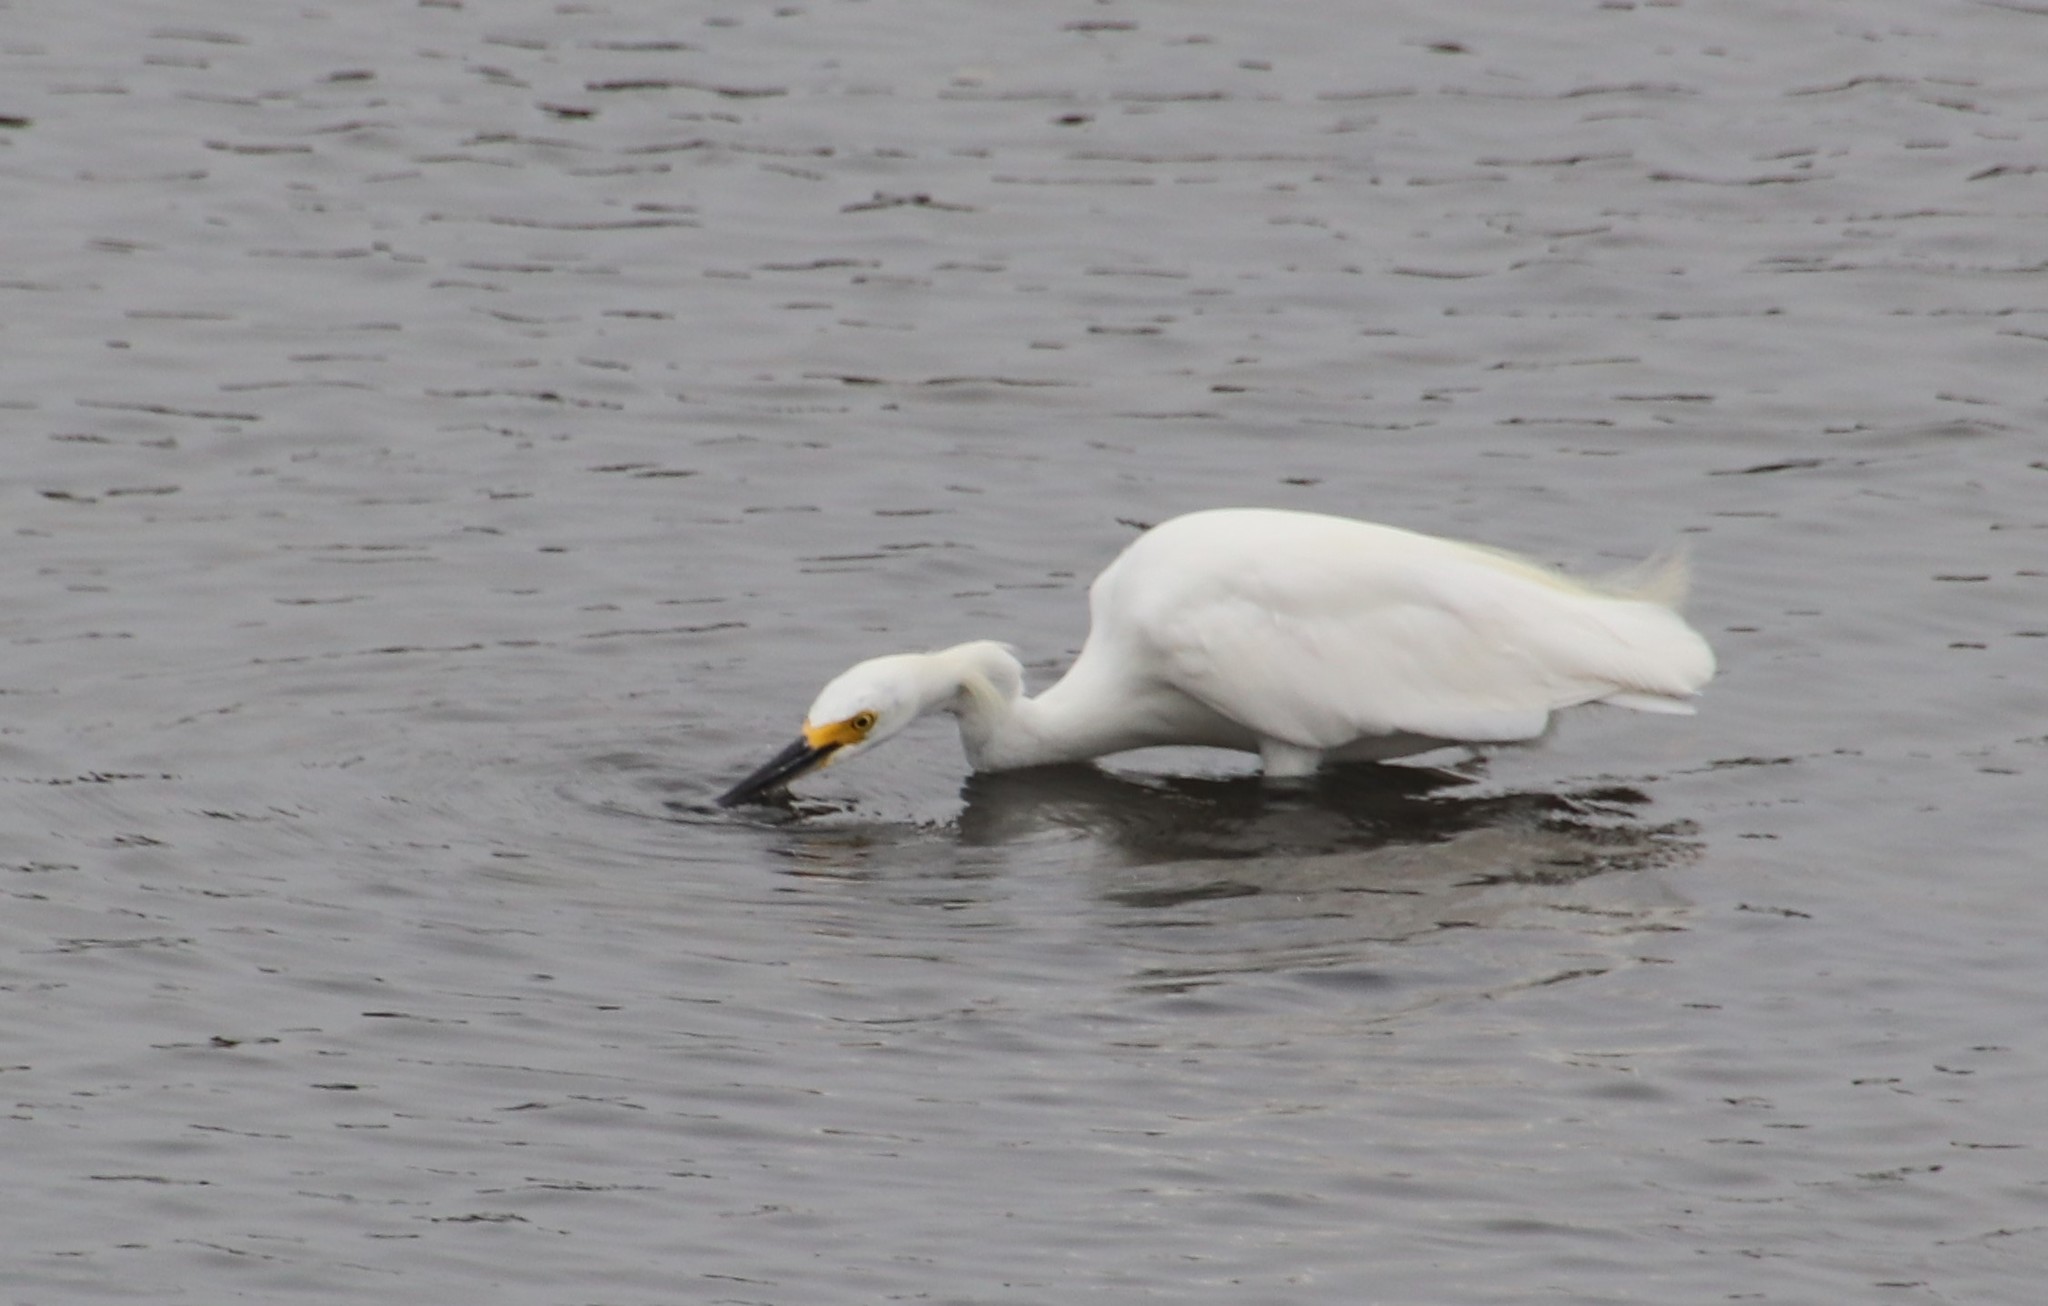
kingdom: Animalia
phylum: Chordata
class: Aves
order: Pelecaniformes
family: Ardeidae
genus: Egretta
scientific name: Egretta thula
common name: Snowy egret
